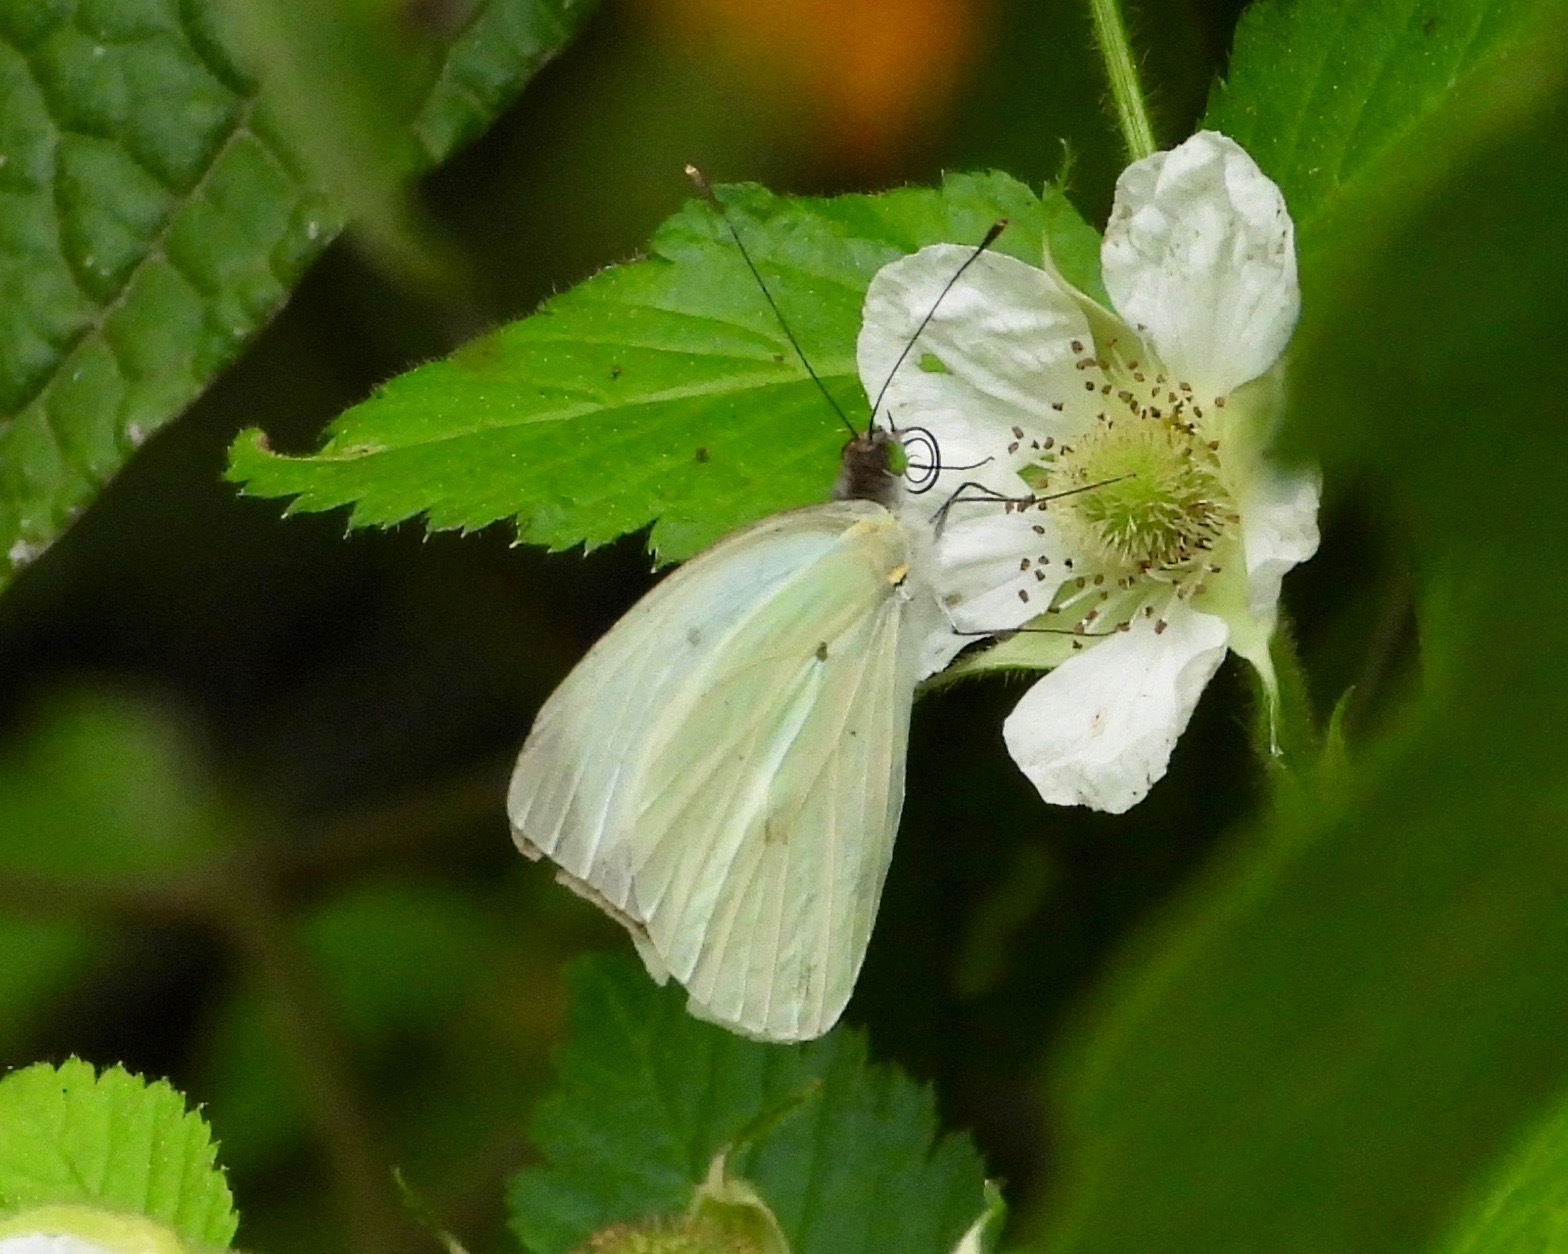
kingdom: Animalia
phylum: Arthropoda
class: Insecta
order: Lepidoptera
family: Pieridae
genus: Leptophobia
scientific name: Leptophobia aripa
